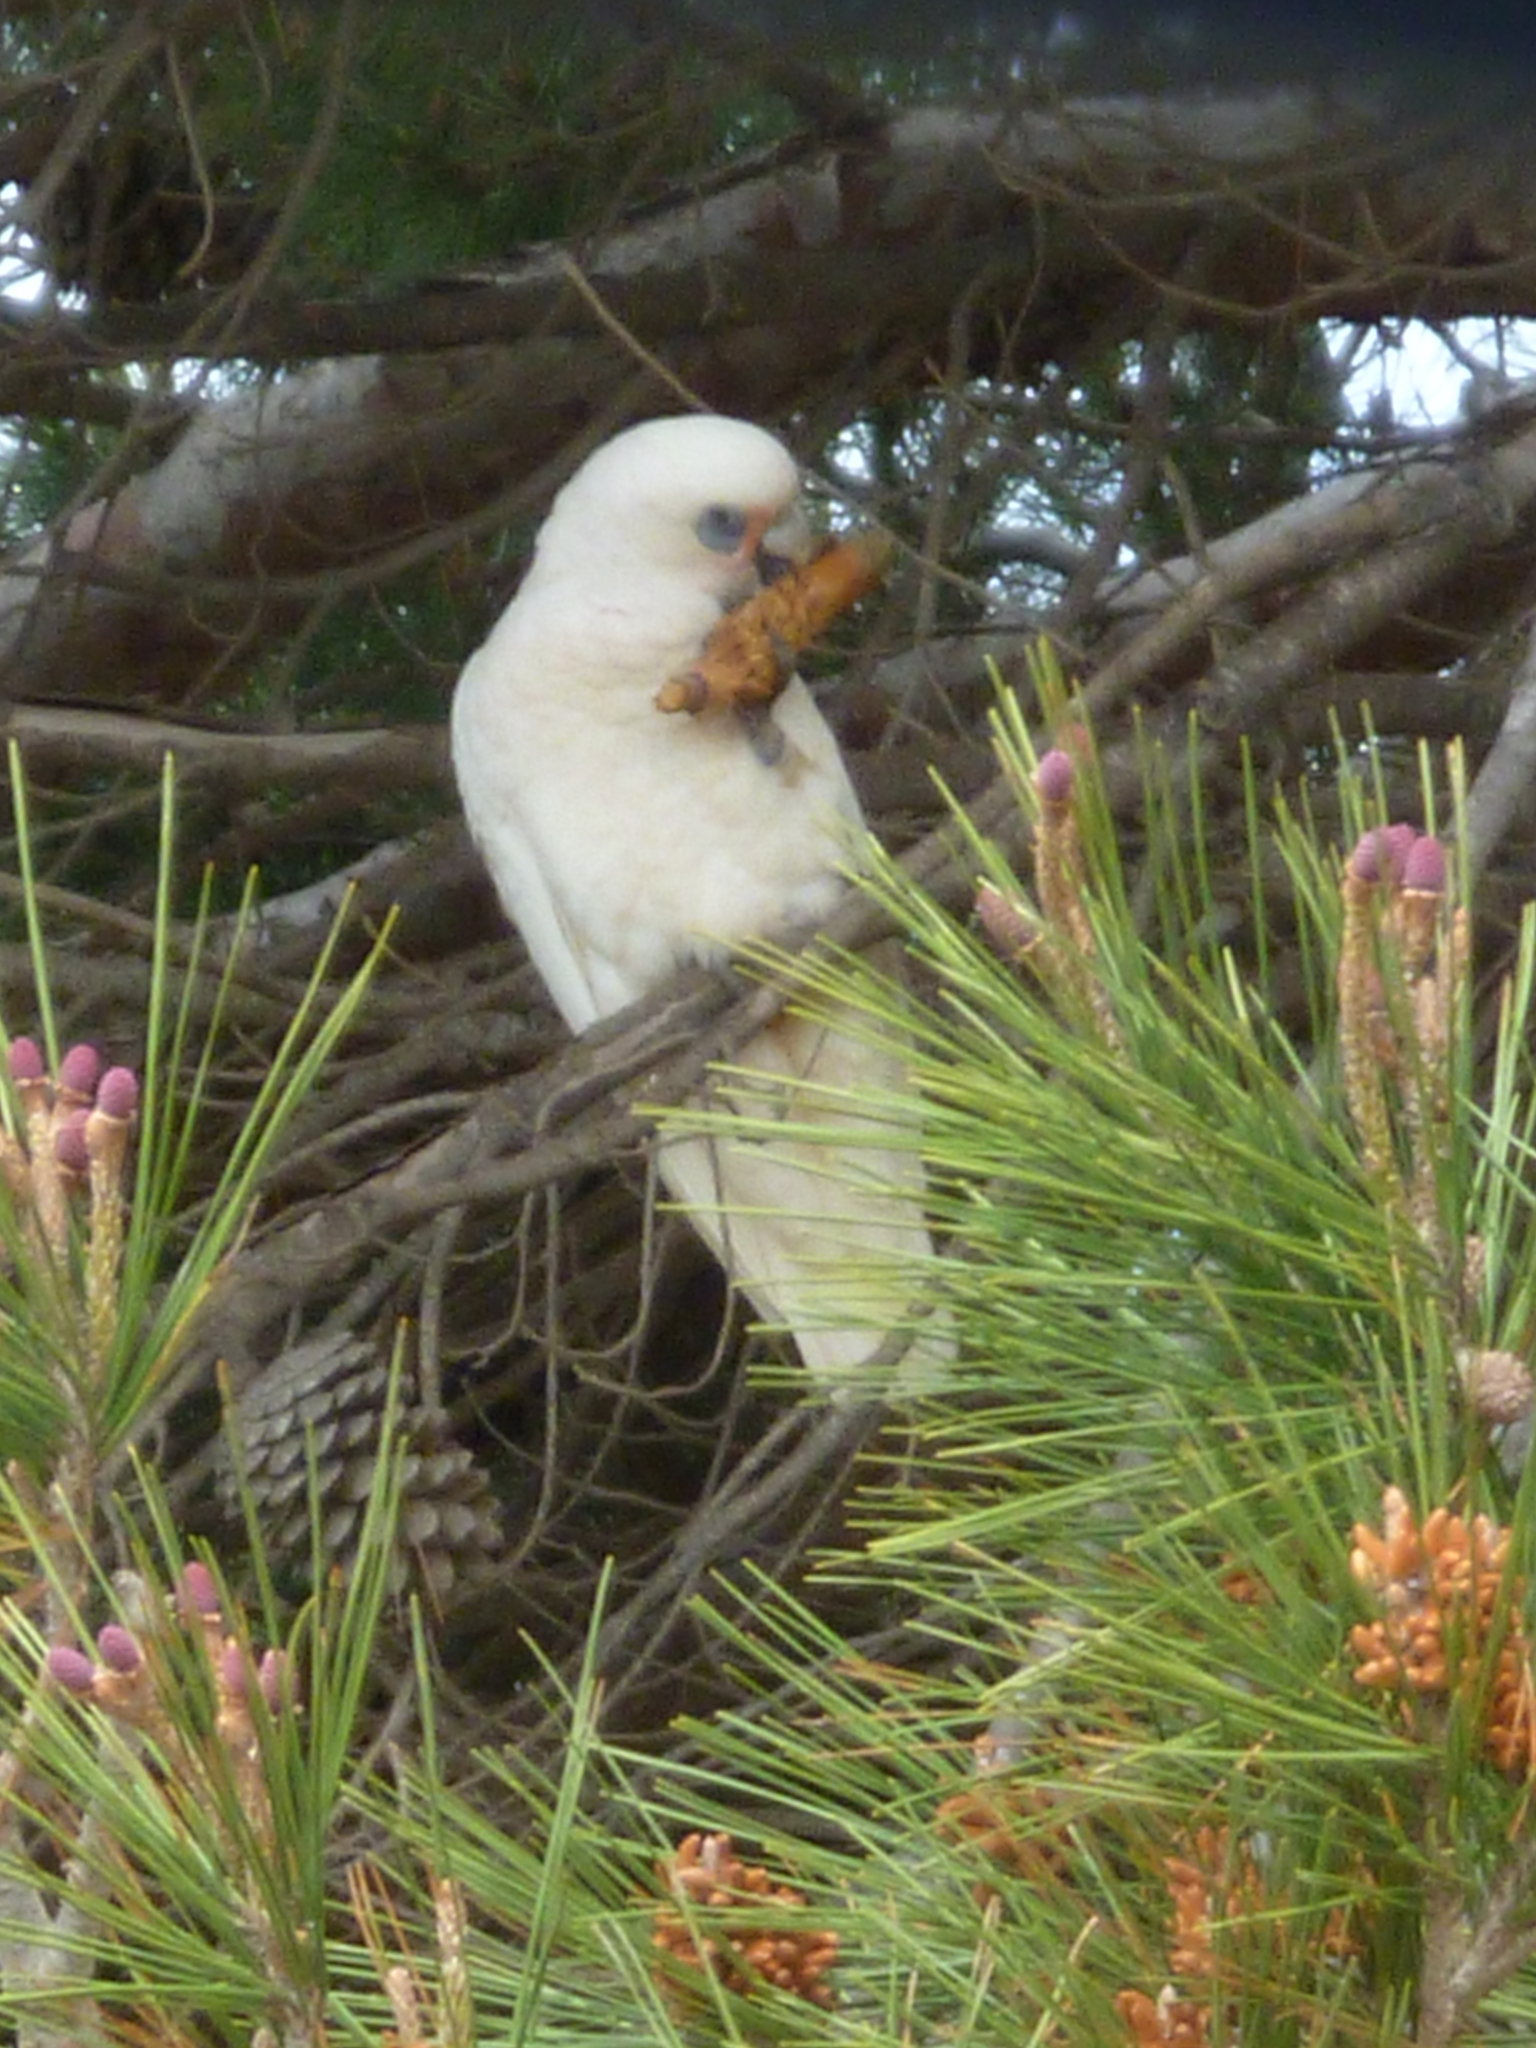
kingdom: Animalia
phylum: Chordata
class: Aves
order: Psittaciformes
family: Psittacidae
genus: Cacatua
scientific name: Cacatua sanguinea
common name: Little corella
